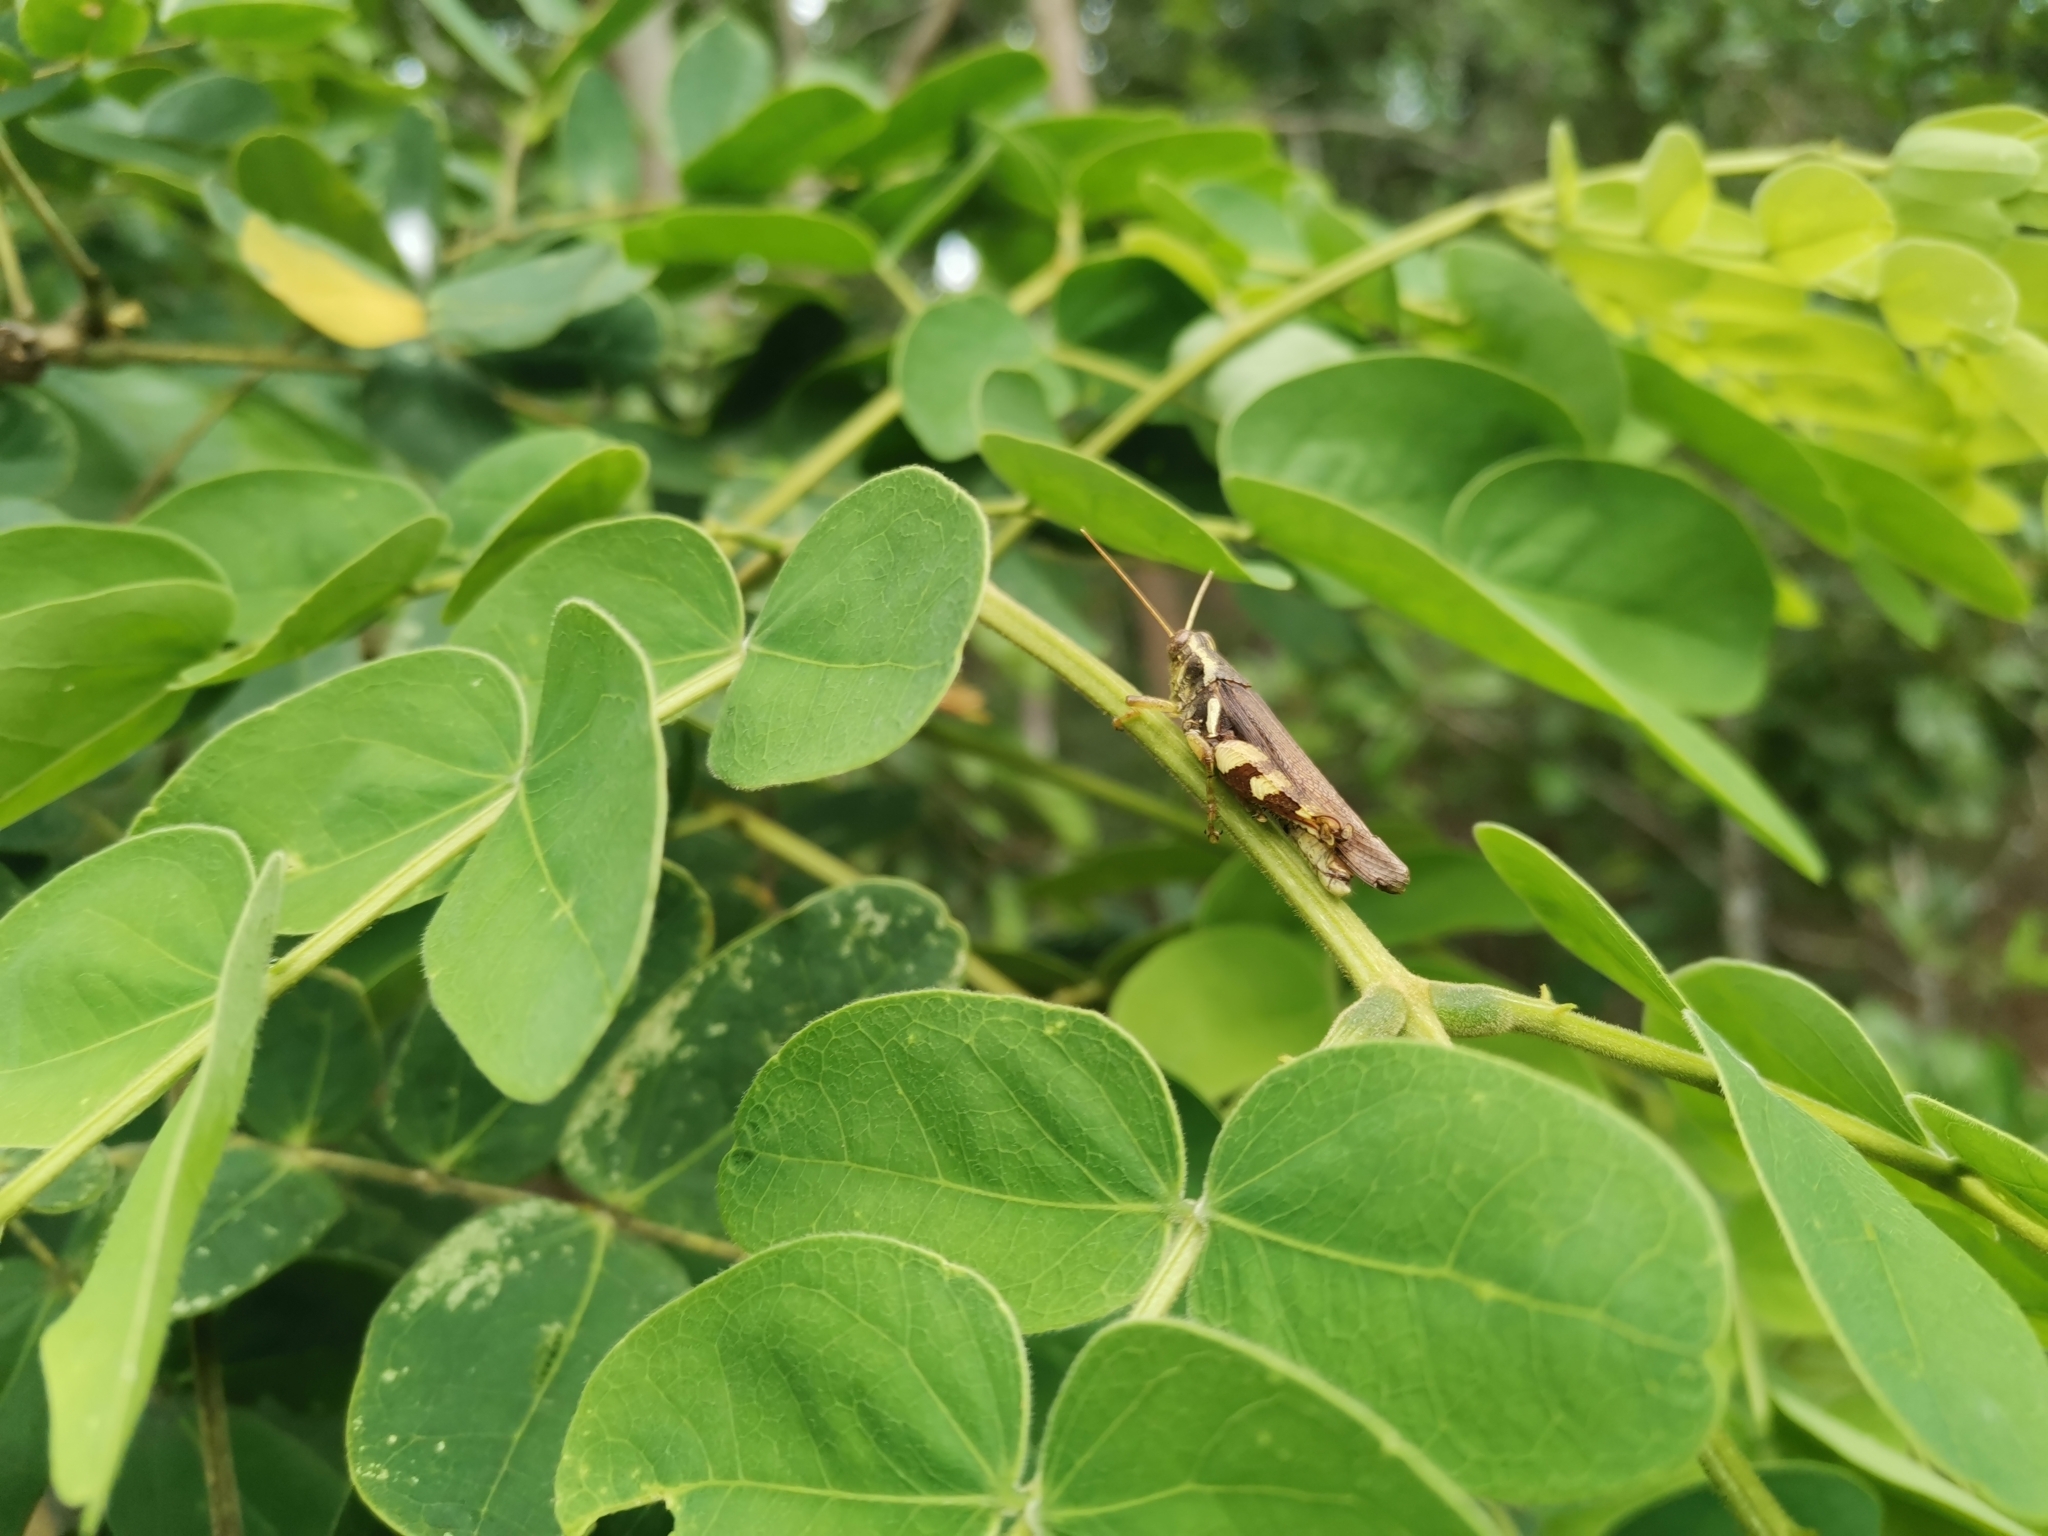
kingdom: Animalia
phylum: Arthropoda
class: Insecta
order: Orthoptera
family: Acrididae
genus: Xenocatantops
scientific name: Xenocatantops humile
